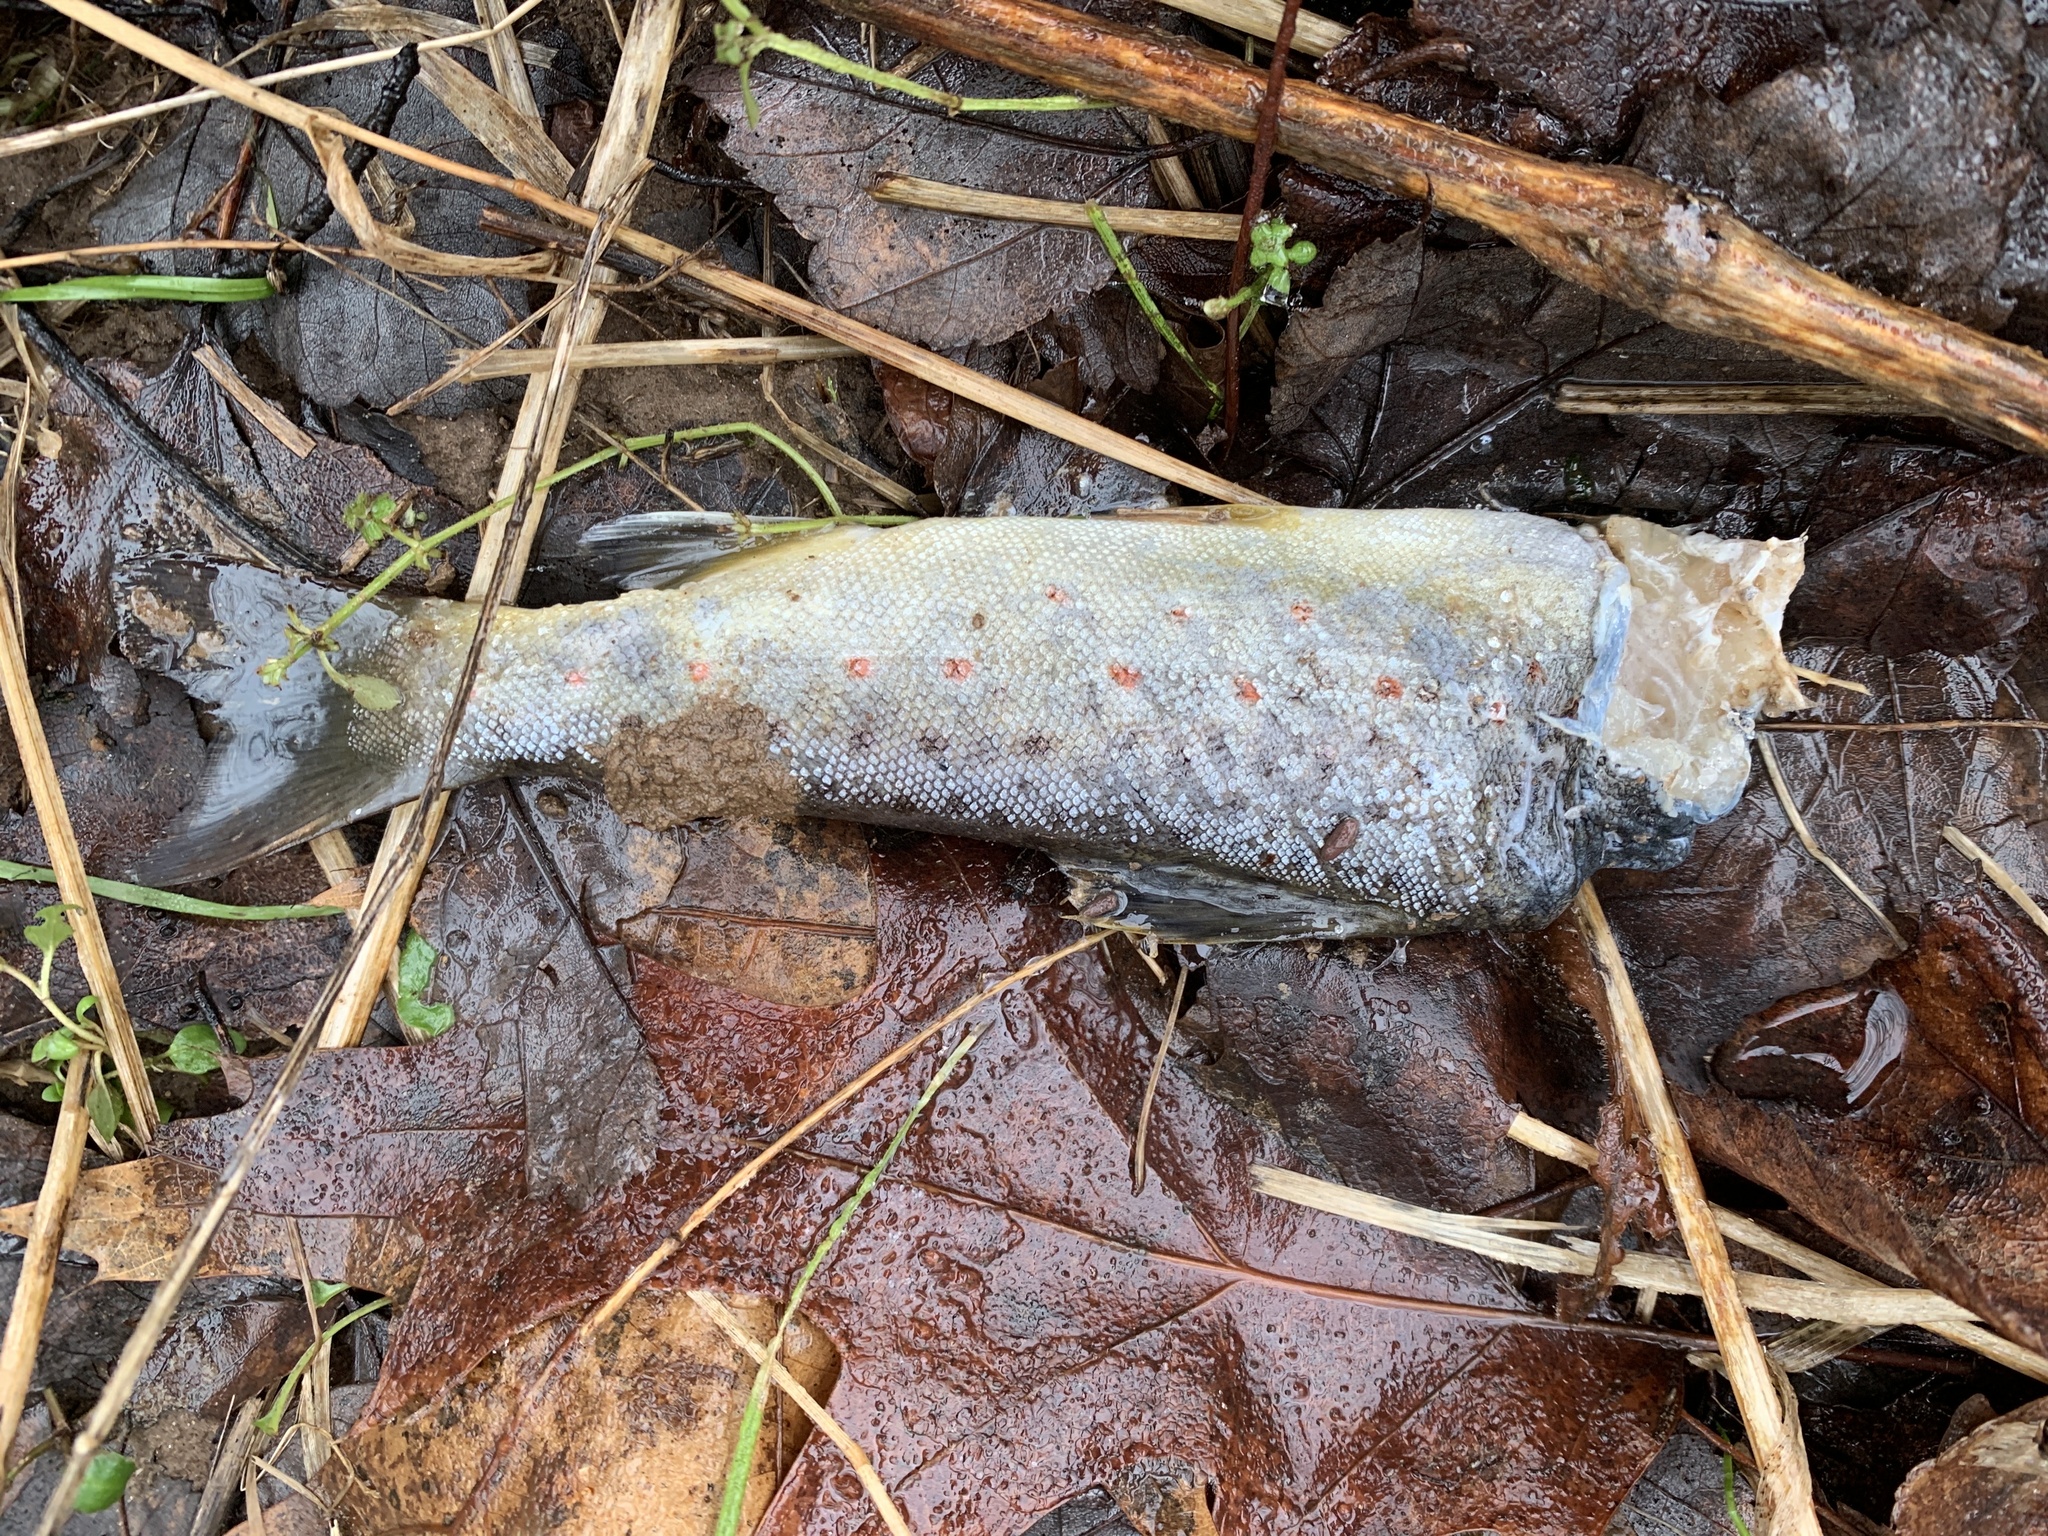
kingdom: Animalia
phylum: Chordata
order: Salmoniformes
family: Salmonidae
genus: Salmo
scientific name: Salmo trutta
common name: Brown trout
